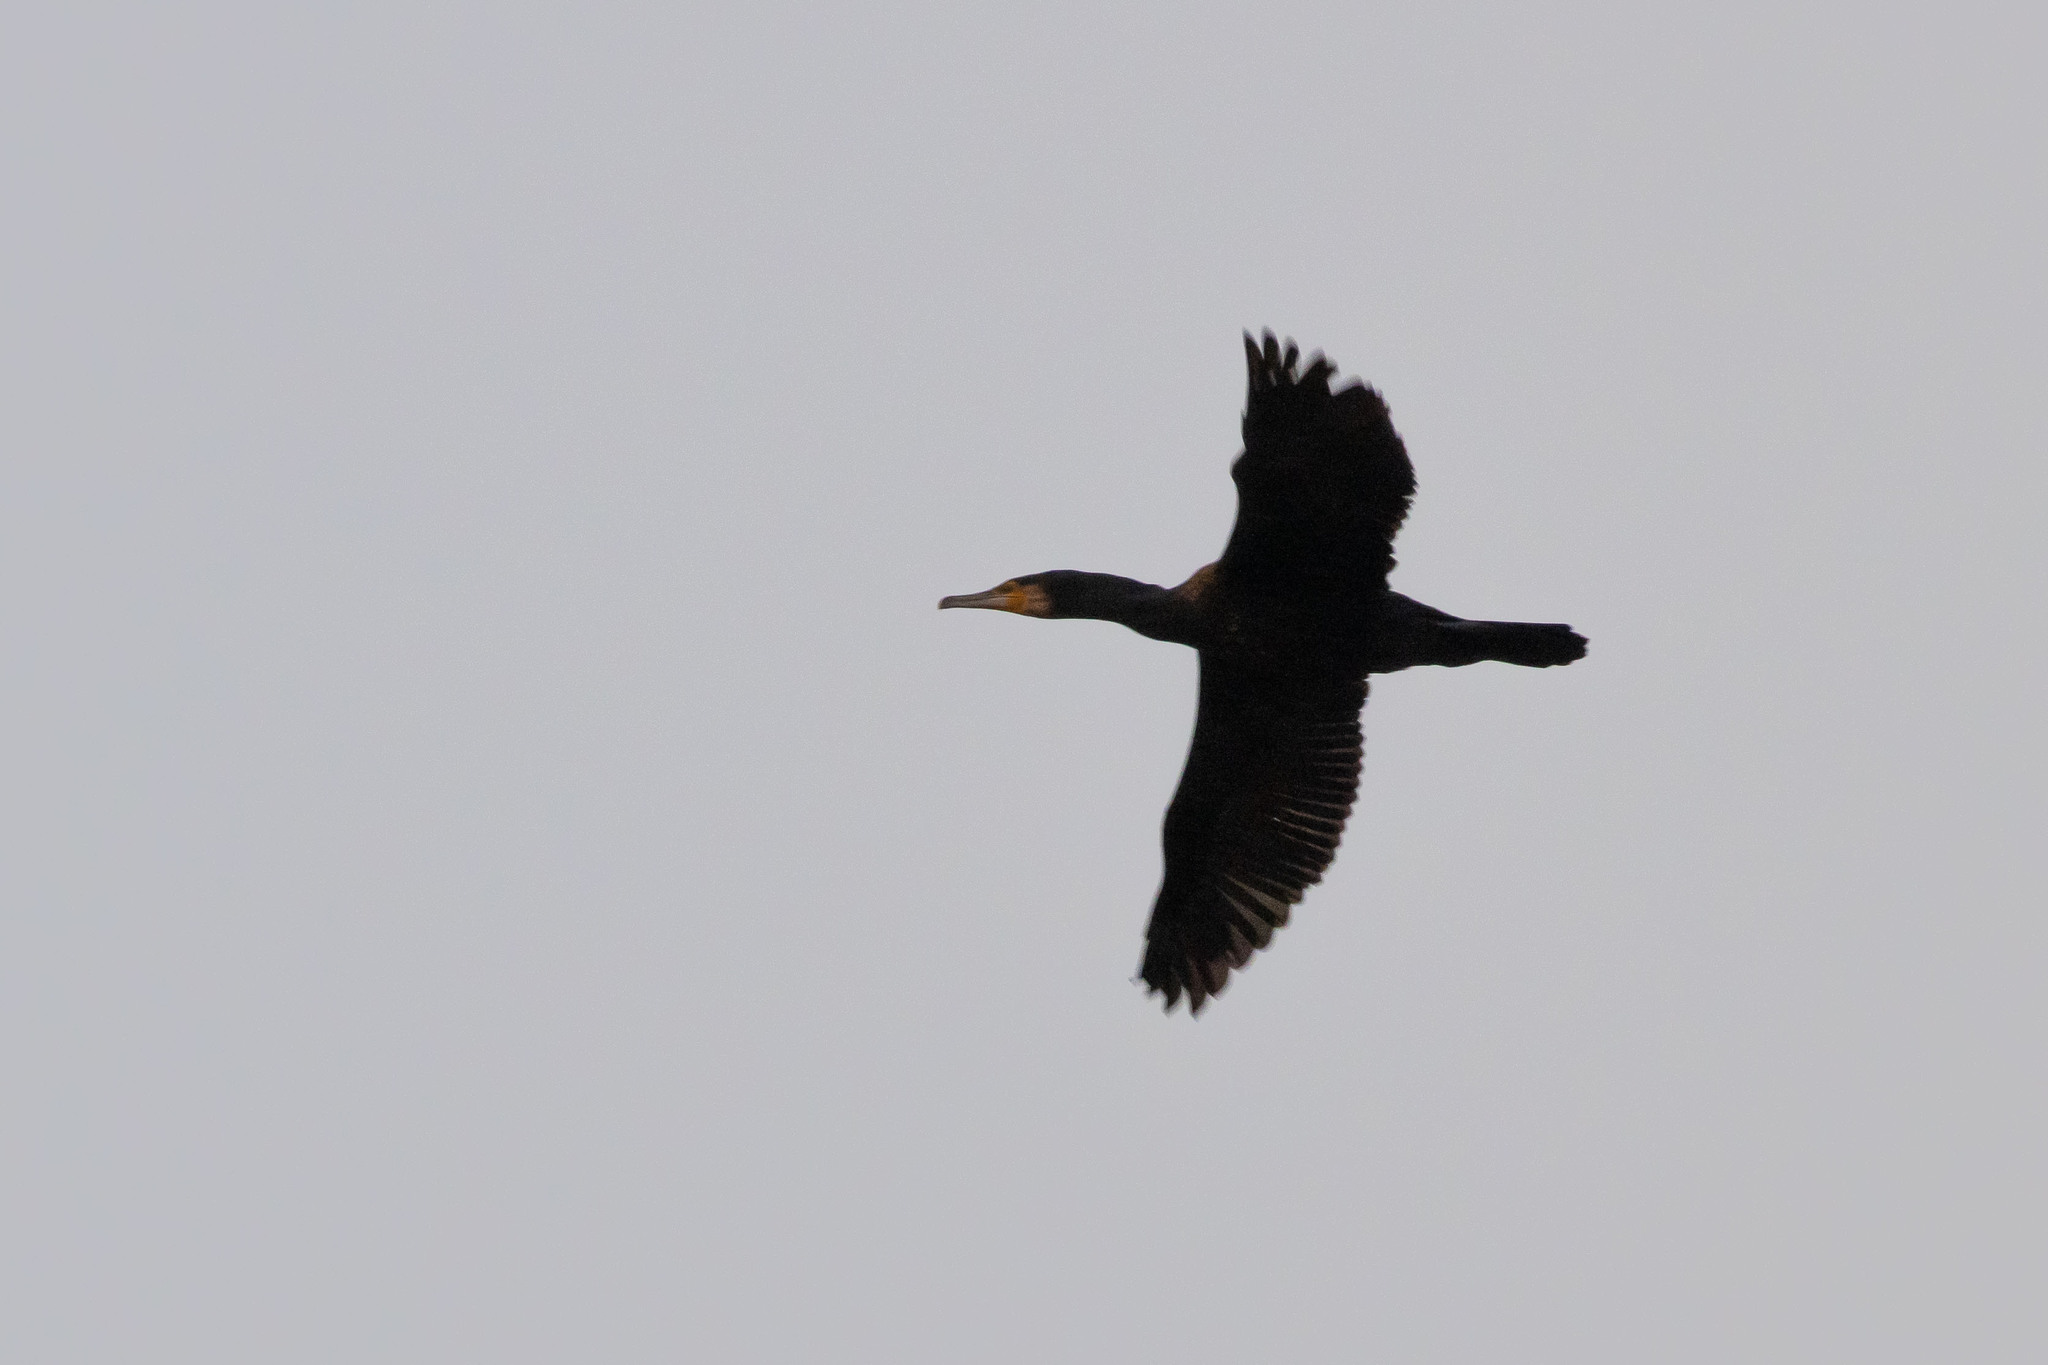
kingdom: Animalia
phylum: Chordata
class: Aves
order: Suliformes
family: Phalacrocoracidae
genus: Phalacrocorax
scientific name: Phalacrocorax carbo
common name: Great cormorant
